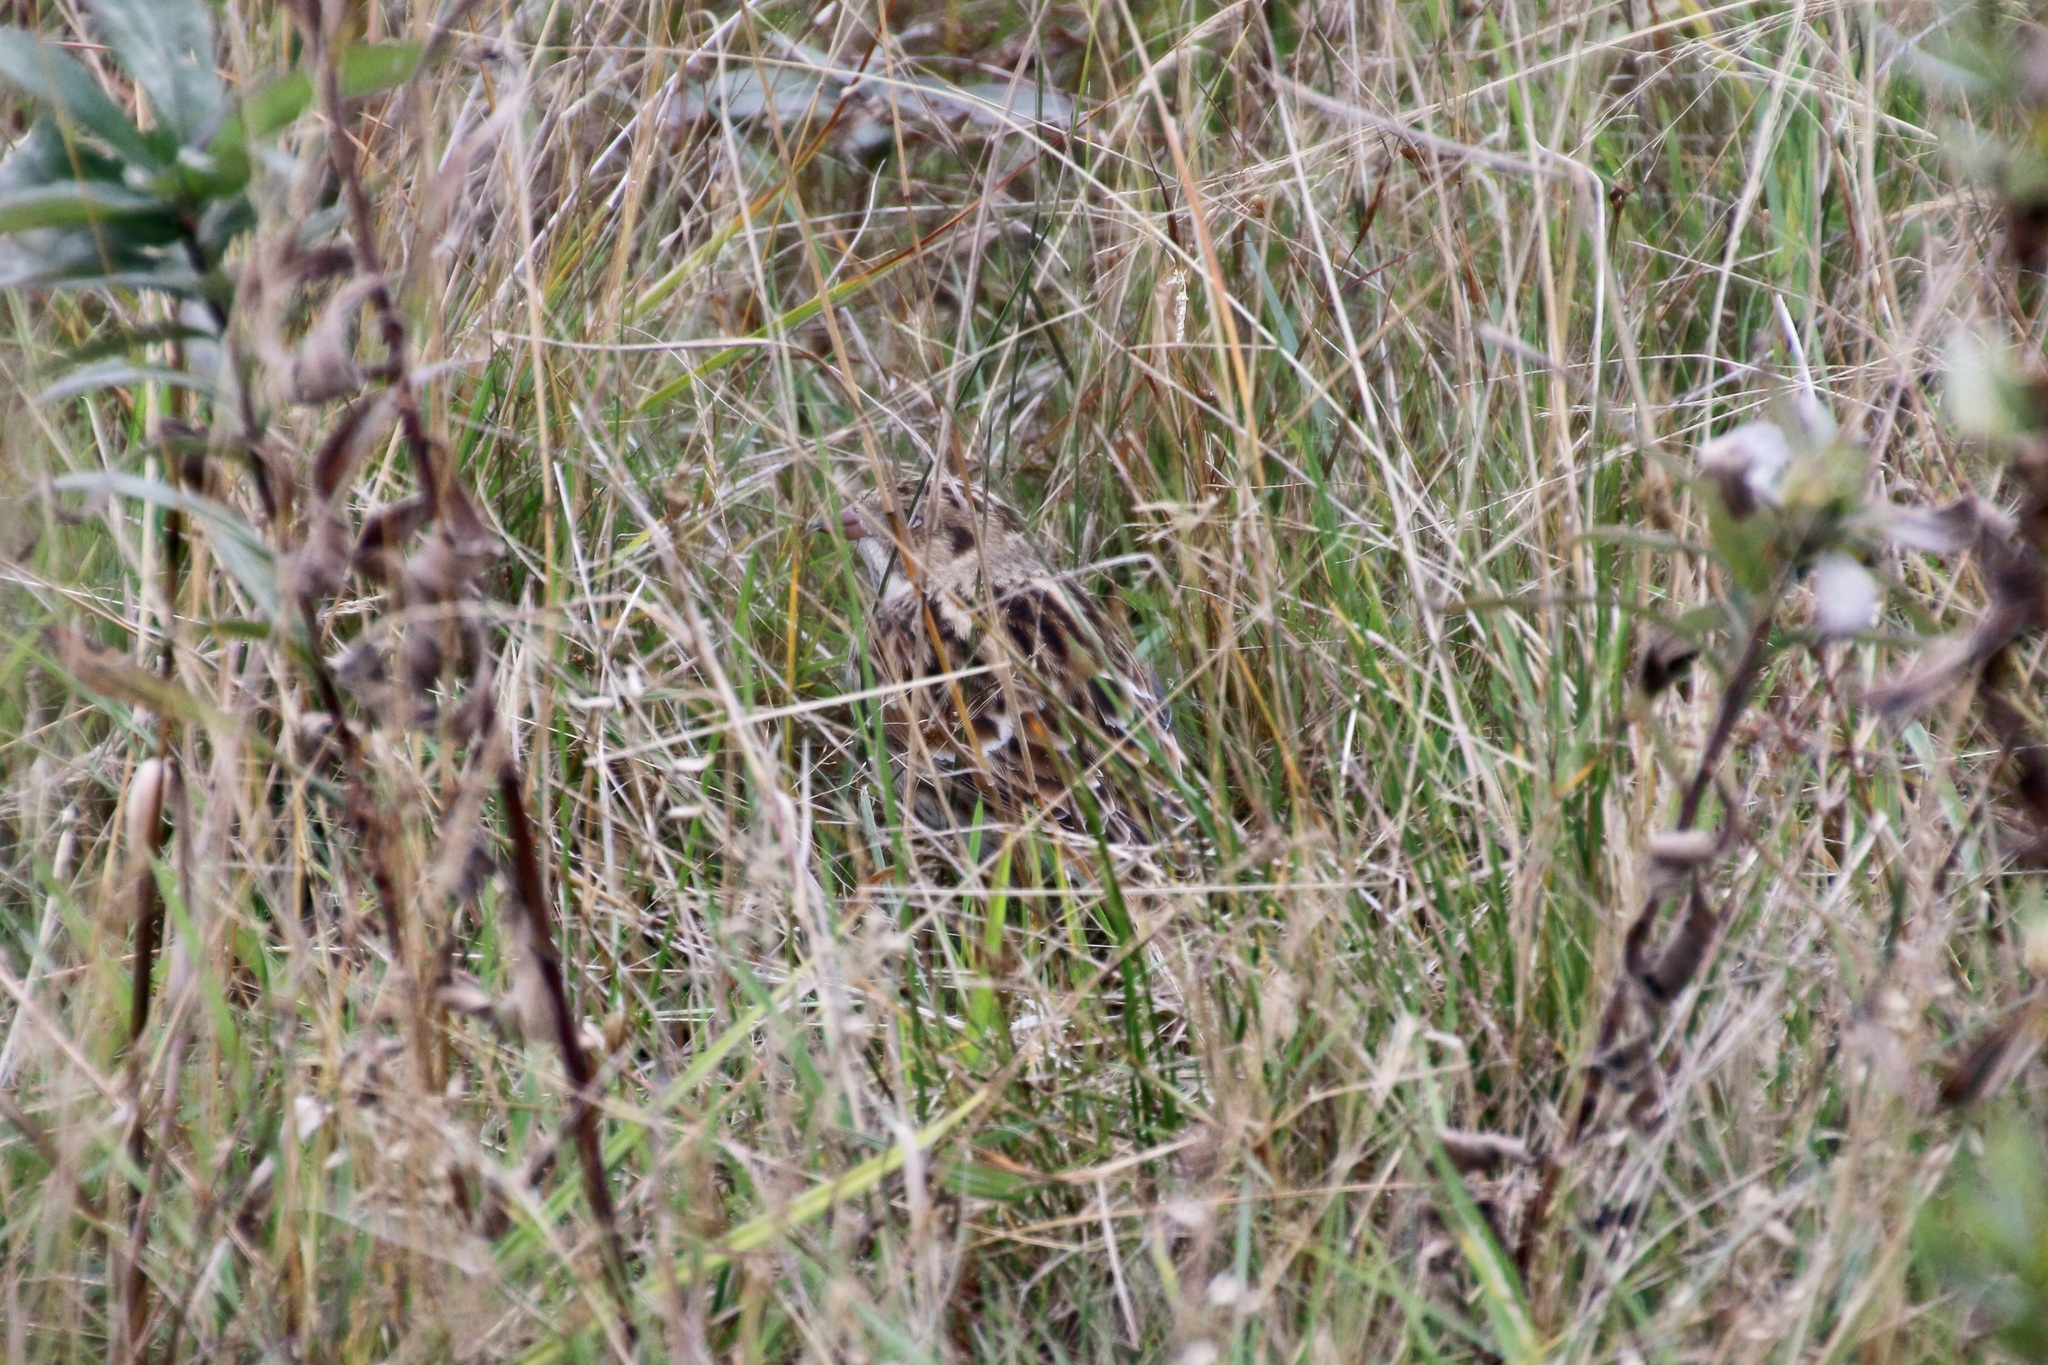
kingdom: Animalia
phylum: Chordata
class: Aves
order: Passeriformes
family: Calcariidae
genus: Calcarius
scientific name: Calcarius lapponicus
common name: Lapland longspur
